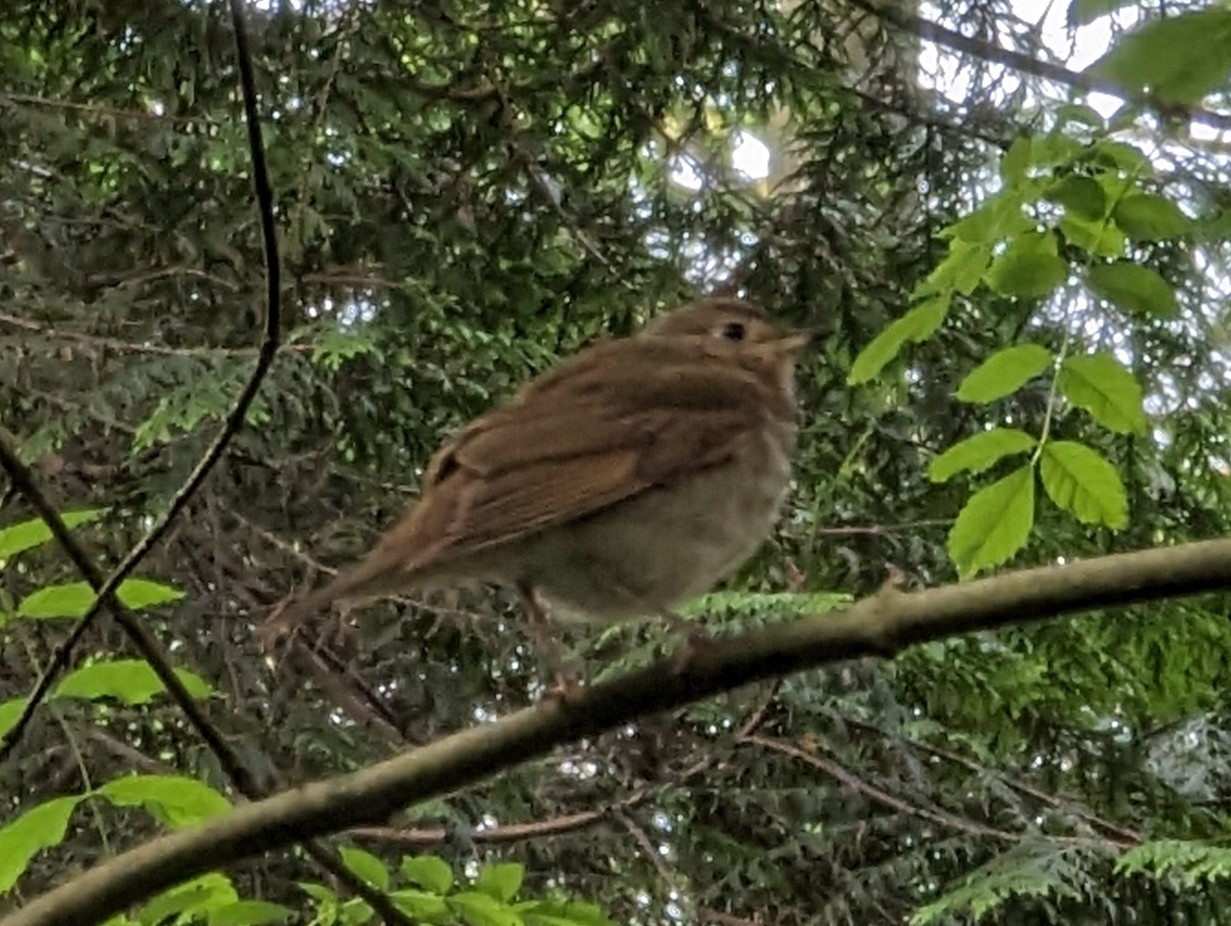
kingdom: Animalia
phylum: Chordata
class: Aves
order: Passeriformes
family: Turdidae
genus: Catharus
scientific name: Catharus ustulatus
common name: Swainson's thrush
